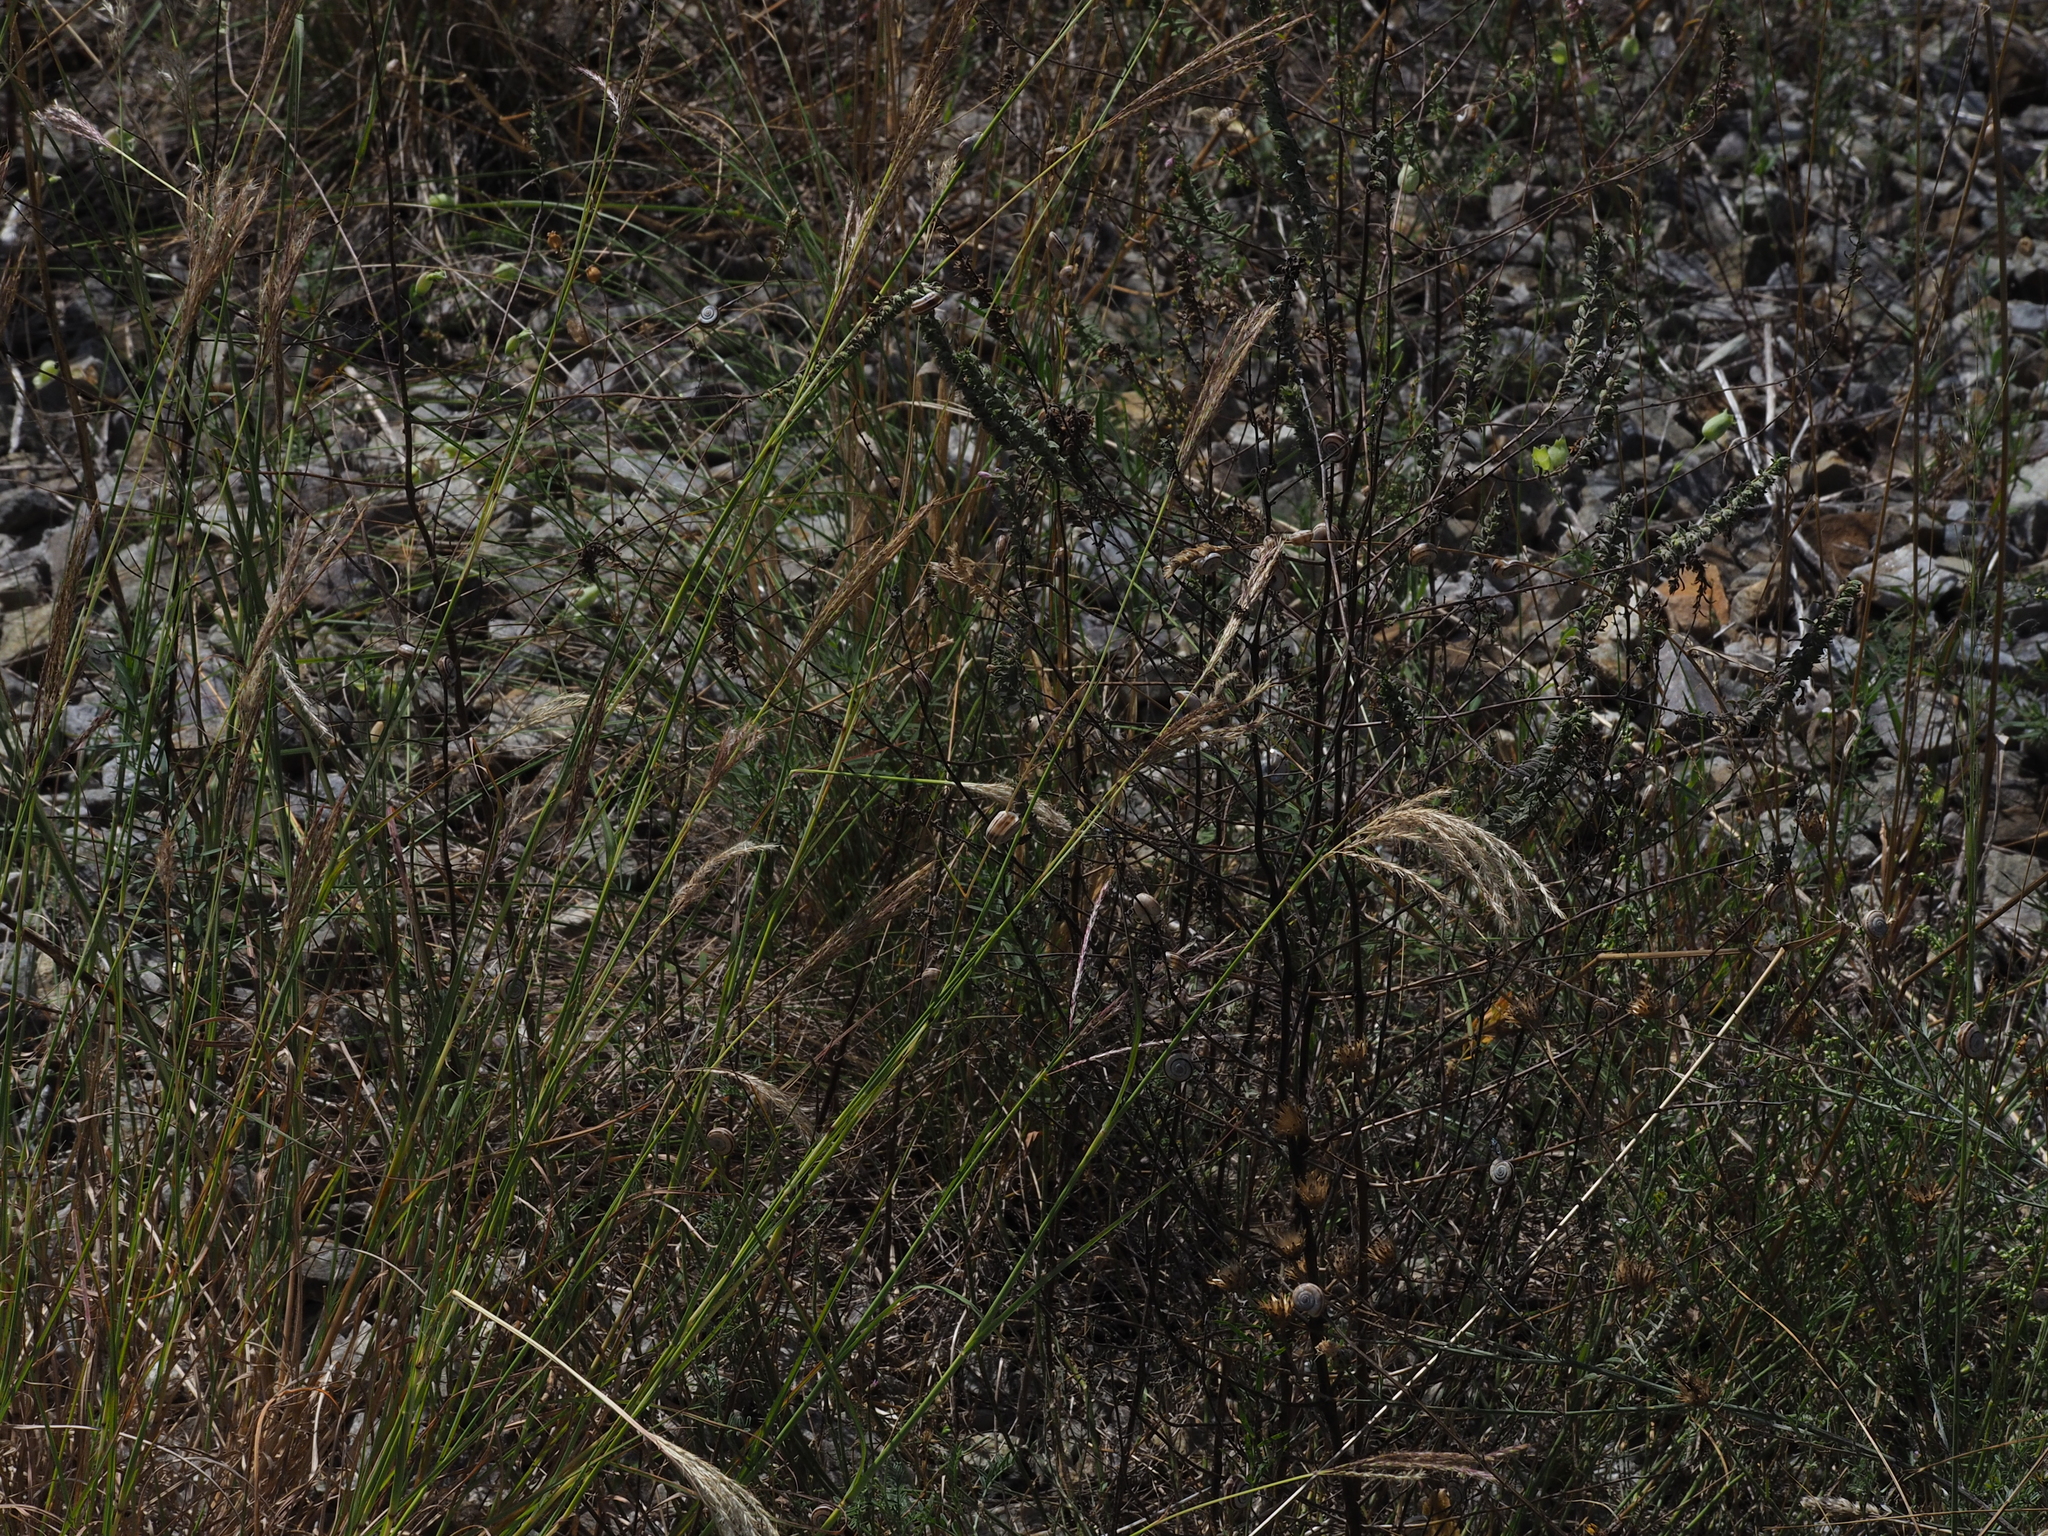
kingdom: Plantae
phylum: Tracheophyta
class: Liliopsida
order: Poales
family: Poaceae
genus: Bothriochloa
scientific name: Bothriochloa ischaemum
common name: Yellow bluestem
